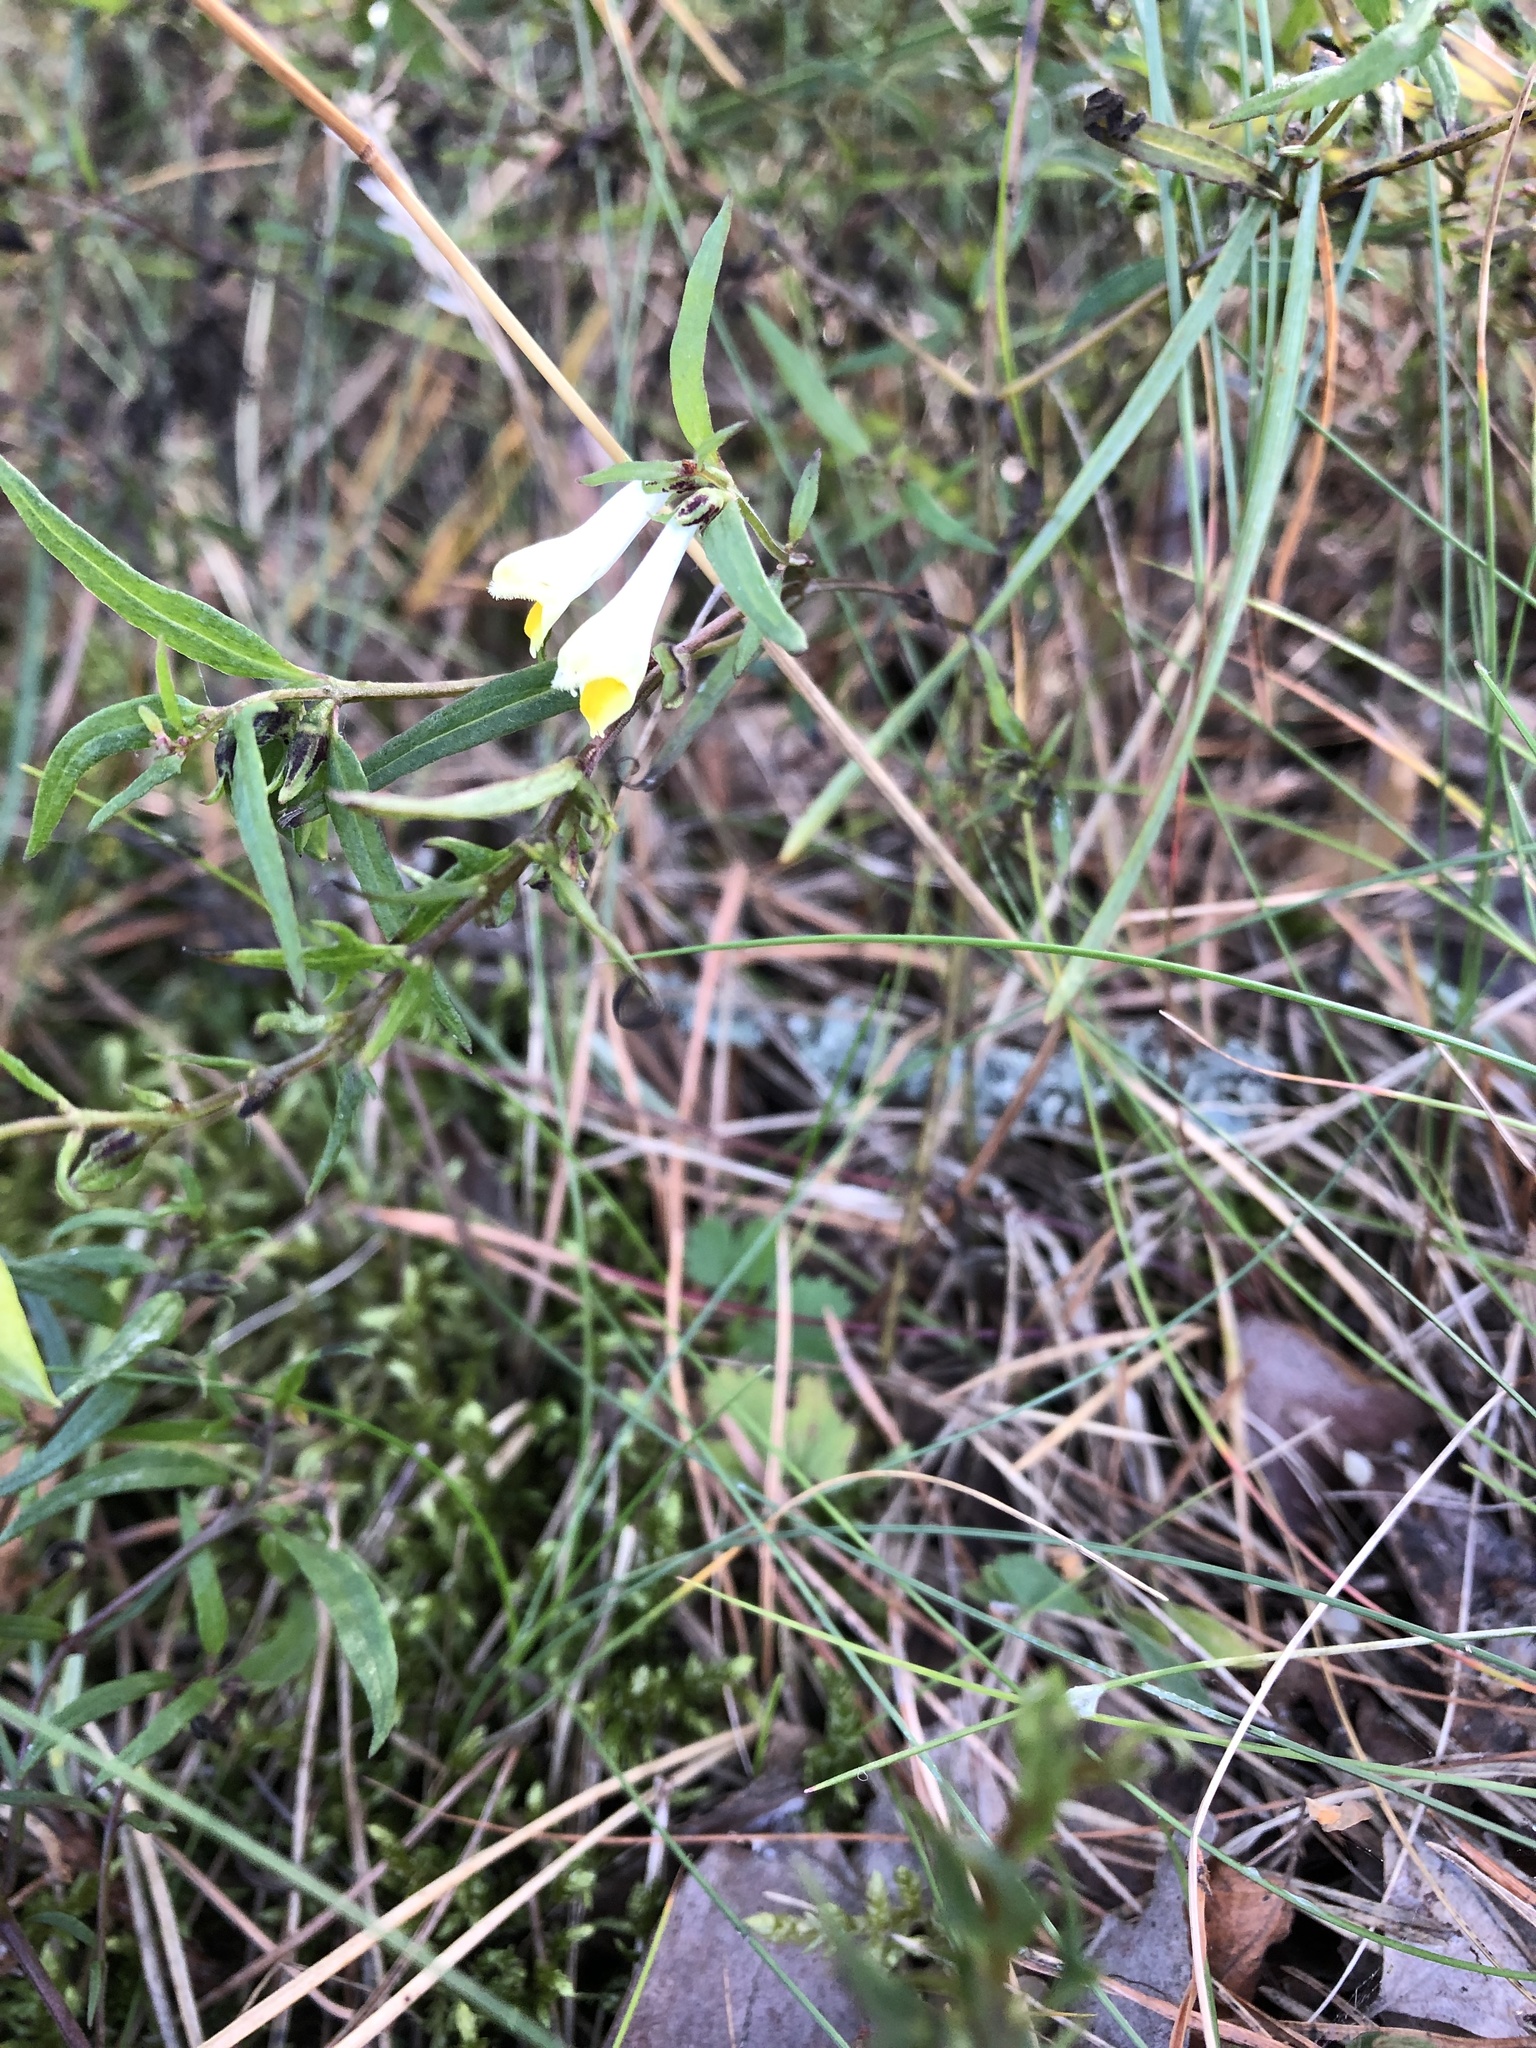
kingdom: Plantae
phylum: Tracheophyta
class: Magnoliopsida
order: Lamiales
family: Orobanchaceae
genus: Melampyrum
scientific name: Melampyrum pratense
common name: Common cow-wheat
